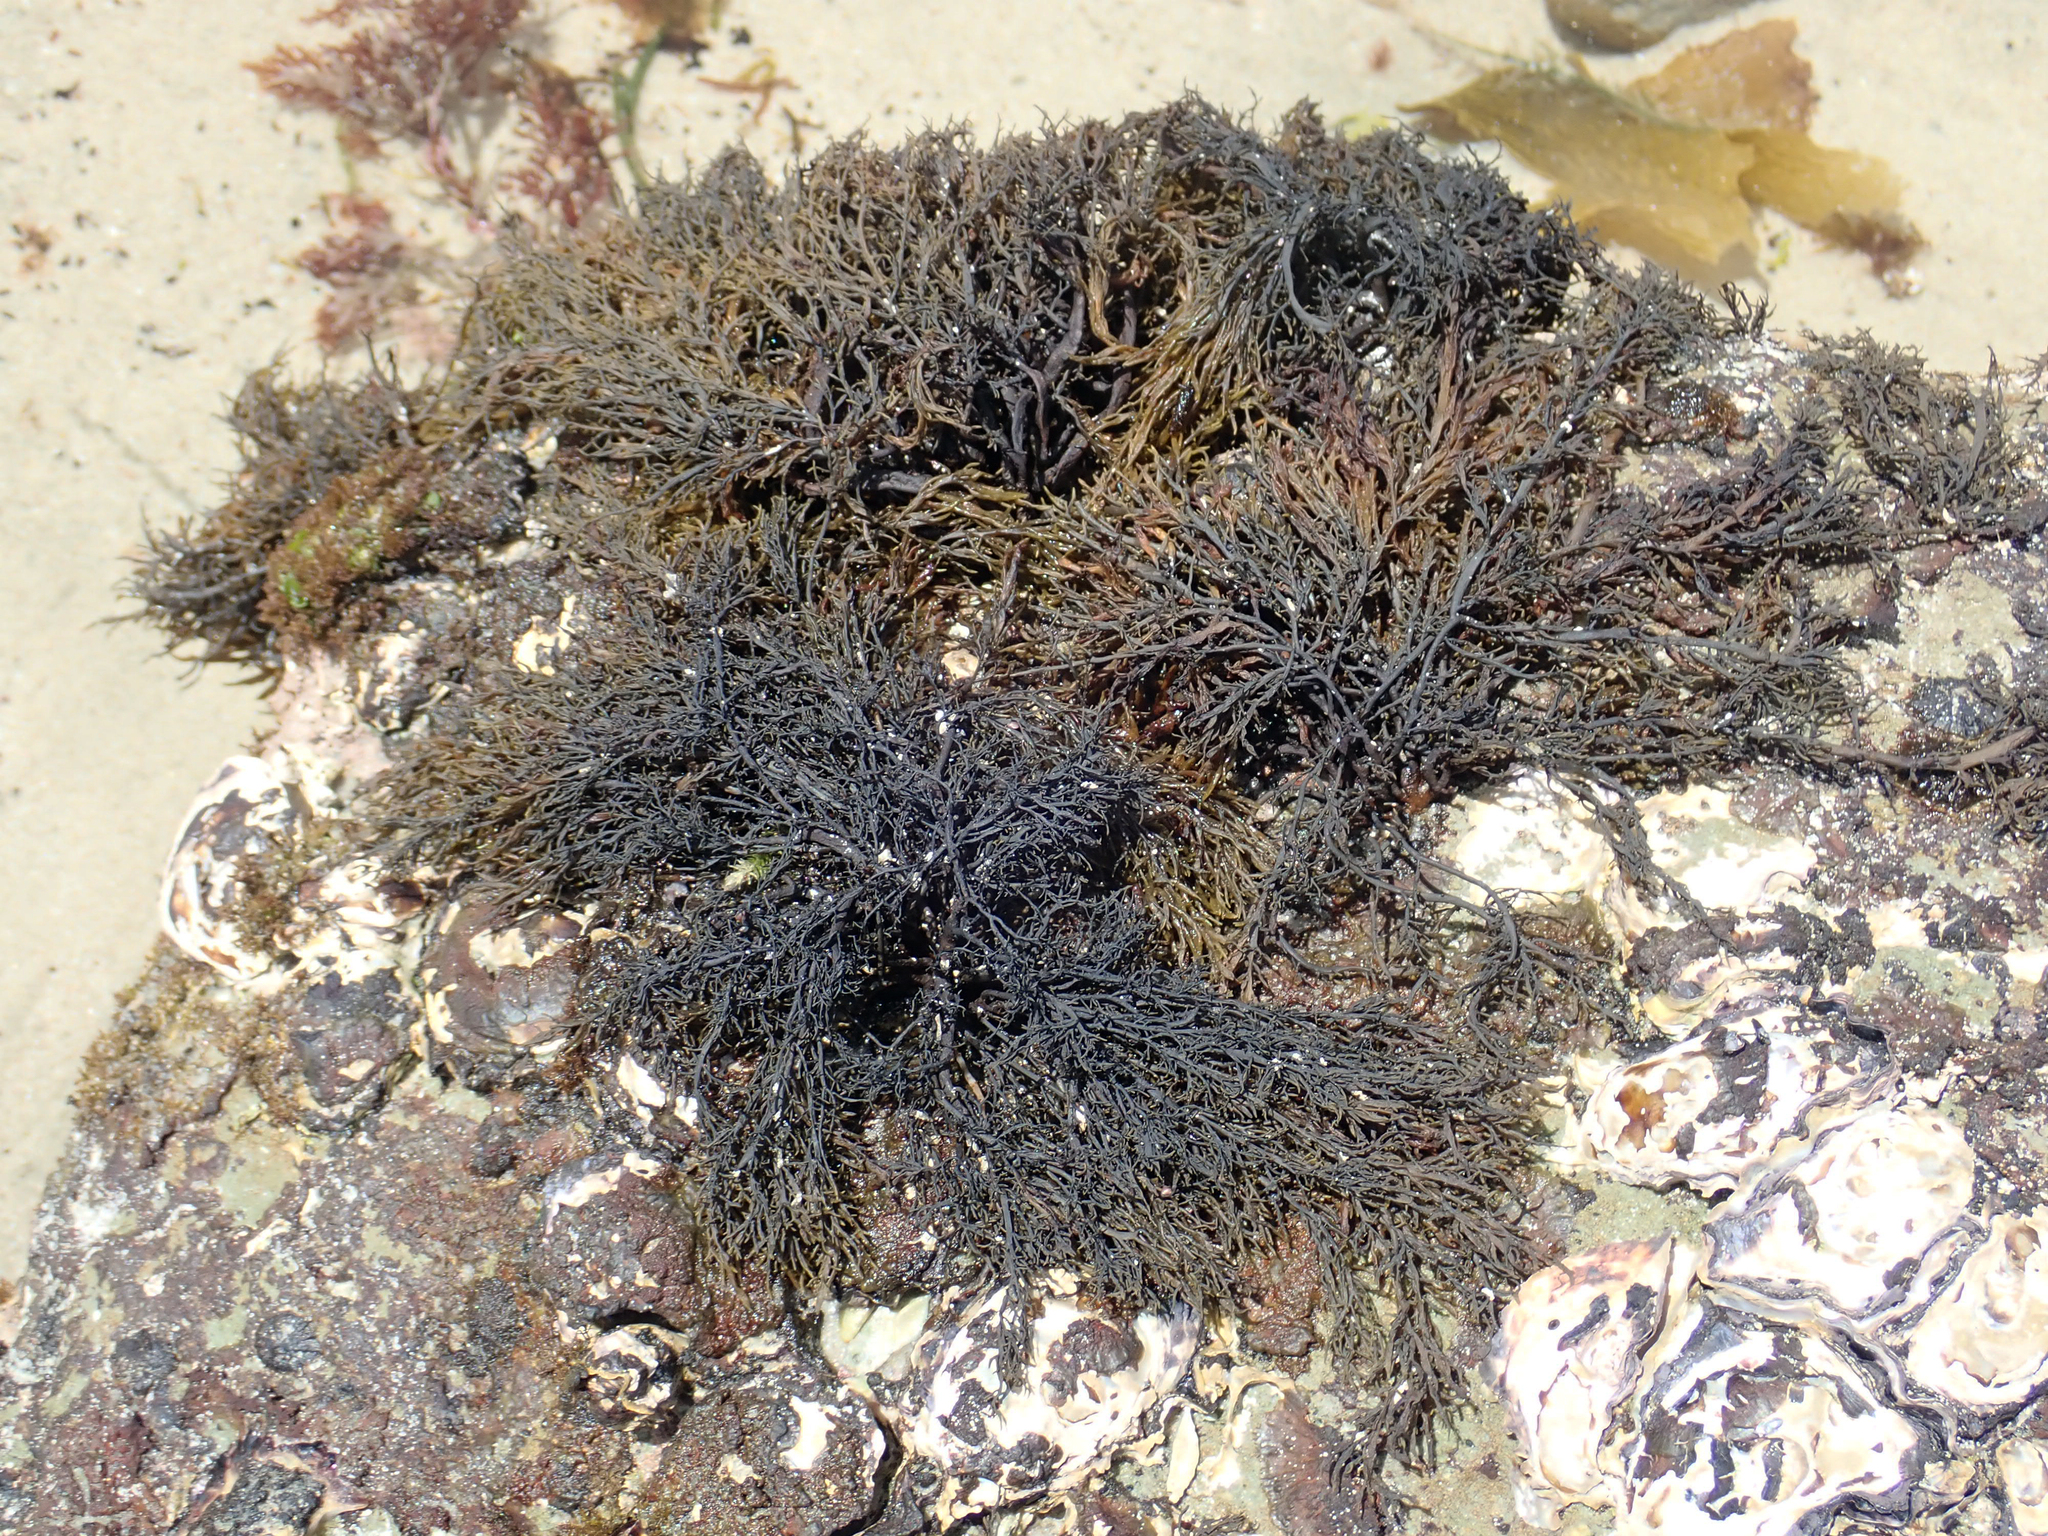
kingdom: Chromista
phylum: Ochrophyta
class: Phaeophyceae
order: Scytothamnales
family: Scytothamnaceae
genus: Scytothamnus
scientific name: Scytothamnus australis
